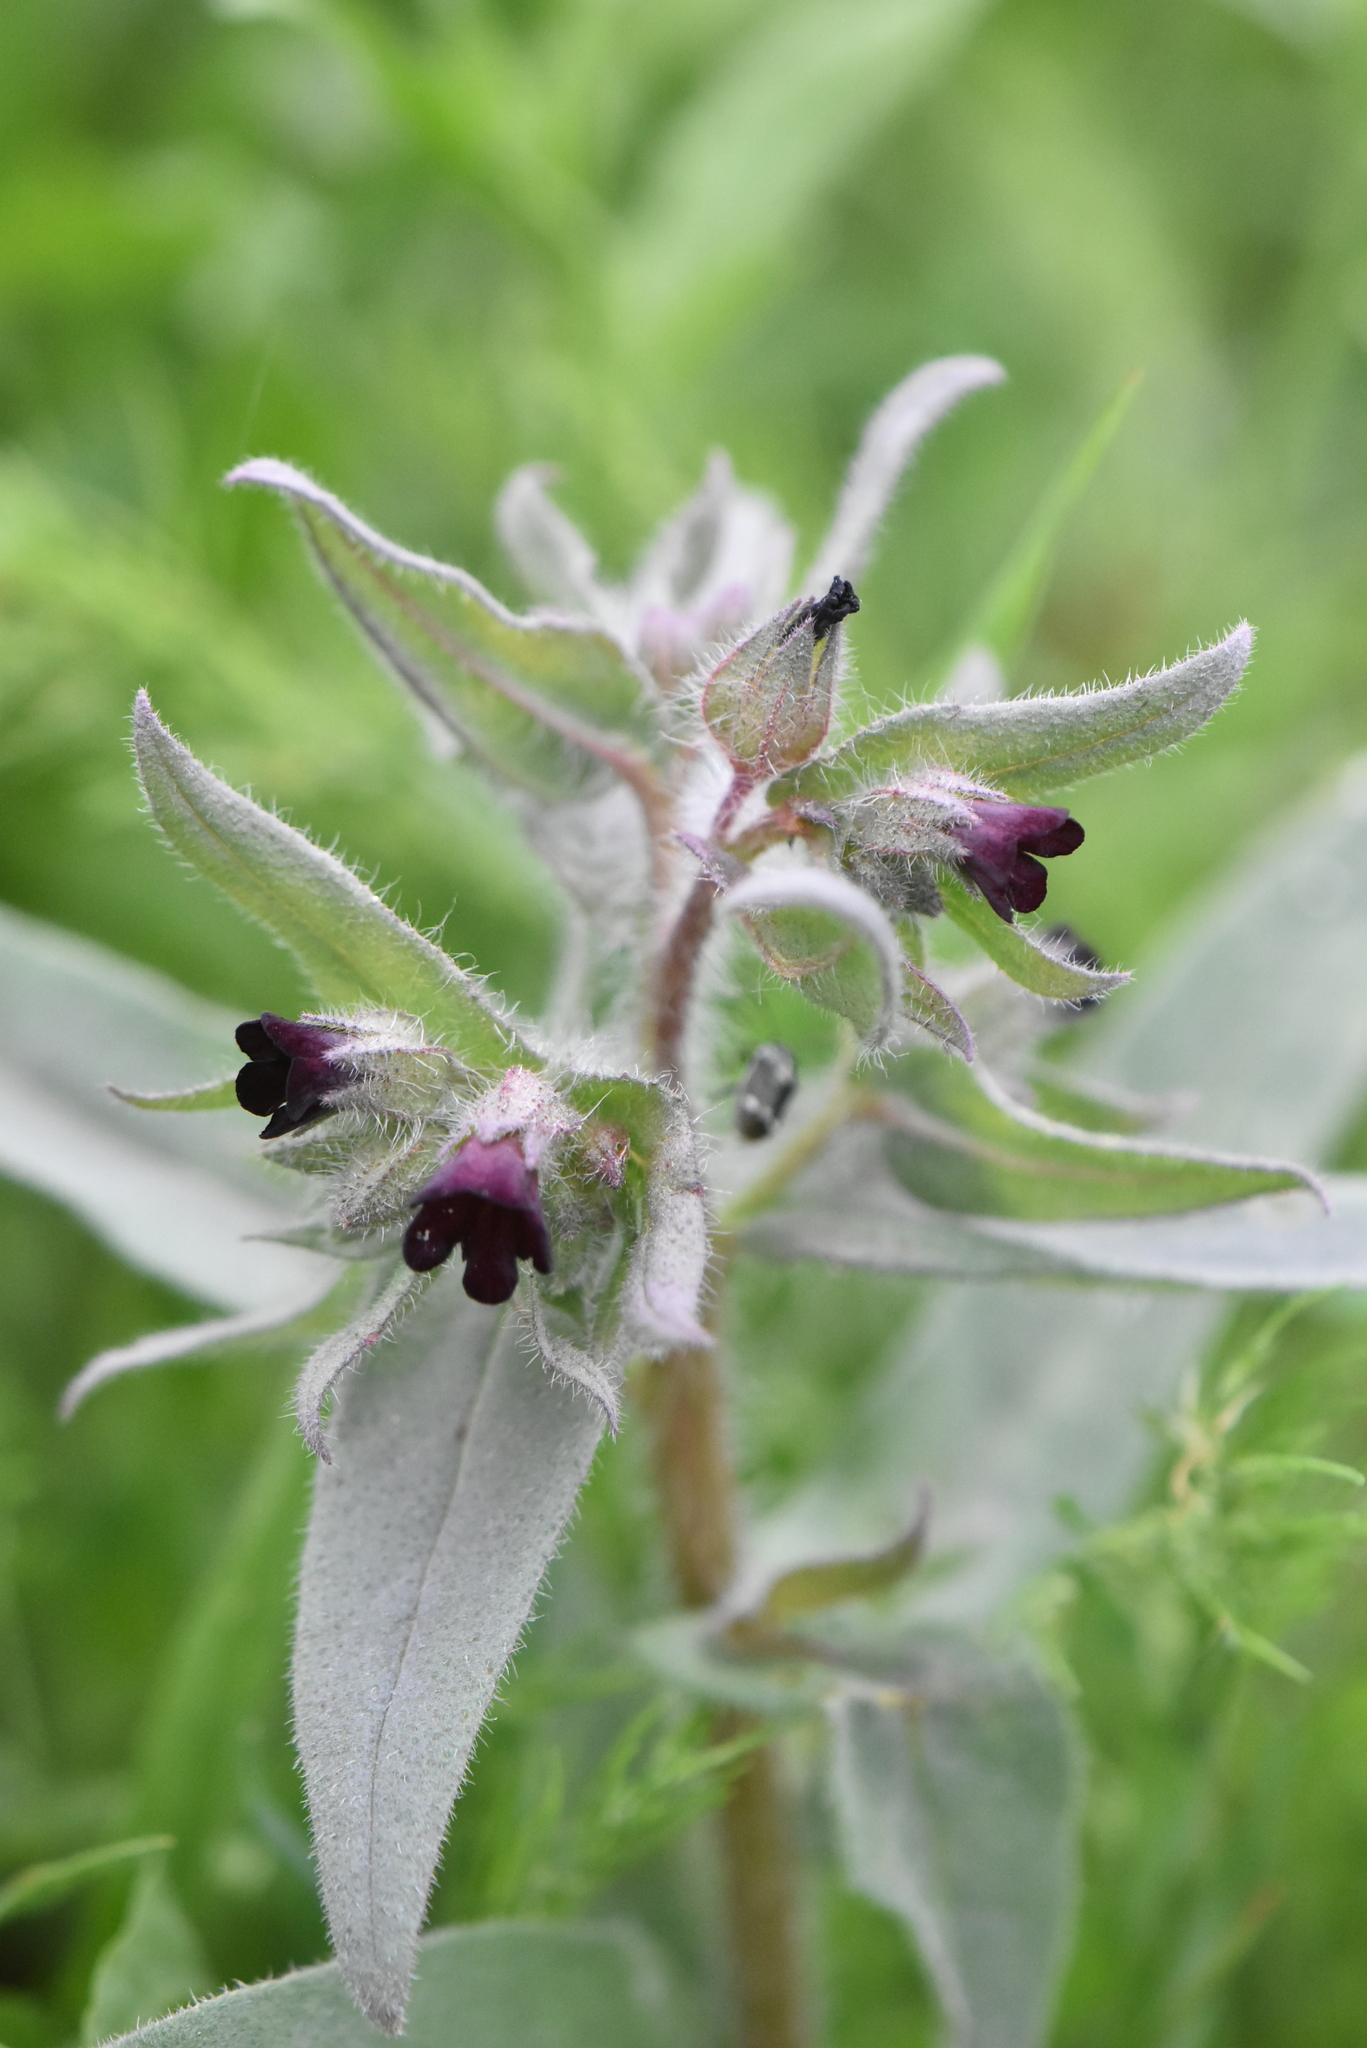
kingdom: Plantae
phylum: Tracheophyta
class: Magnoliopsida
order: Boraginales
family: Boraginaceae
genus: Nonea
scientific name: Nonea pulla
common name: Brown nonea
